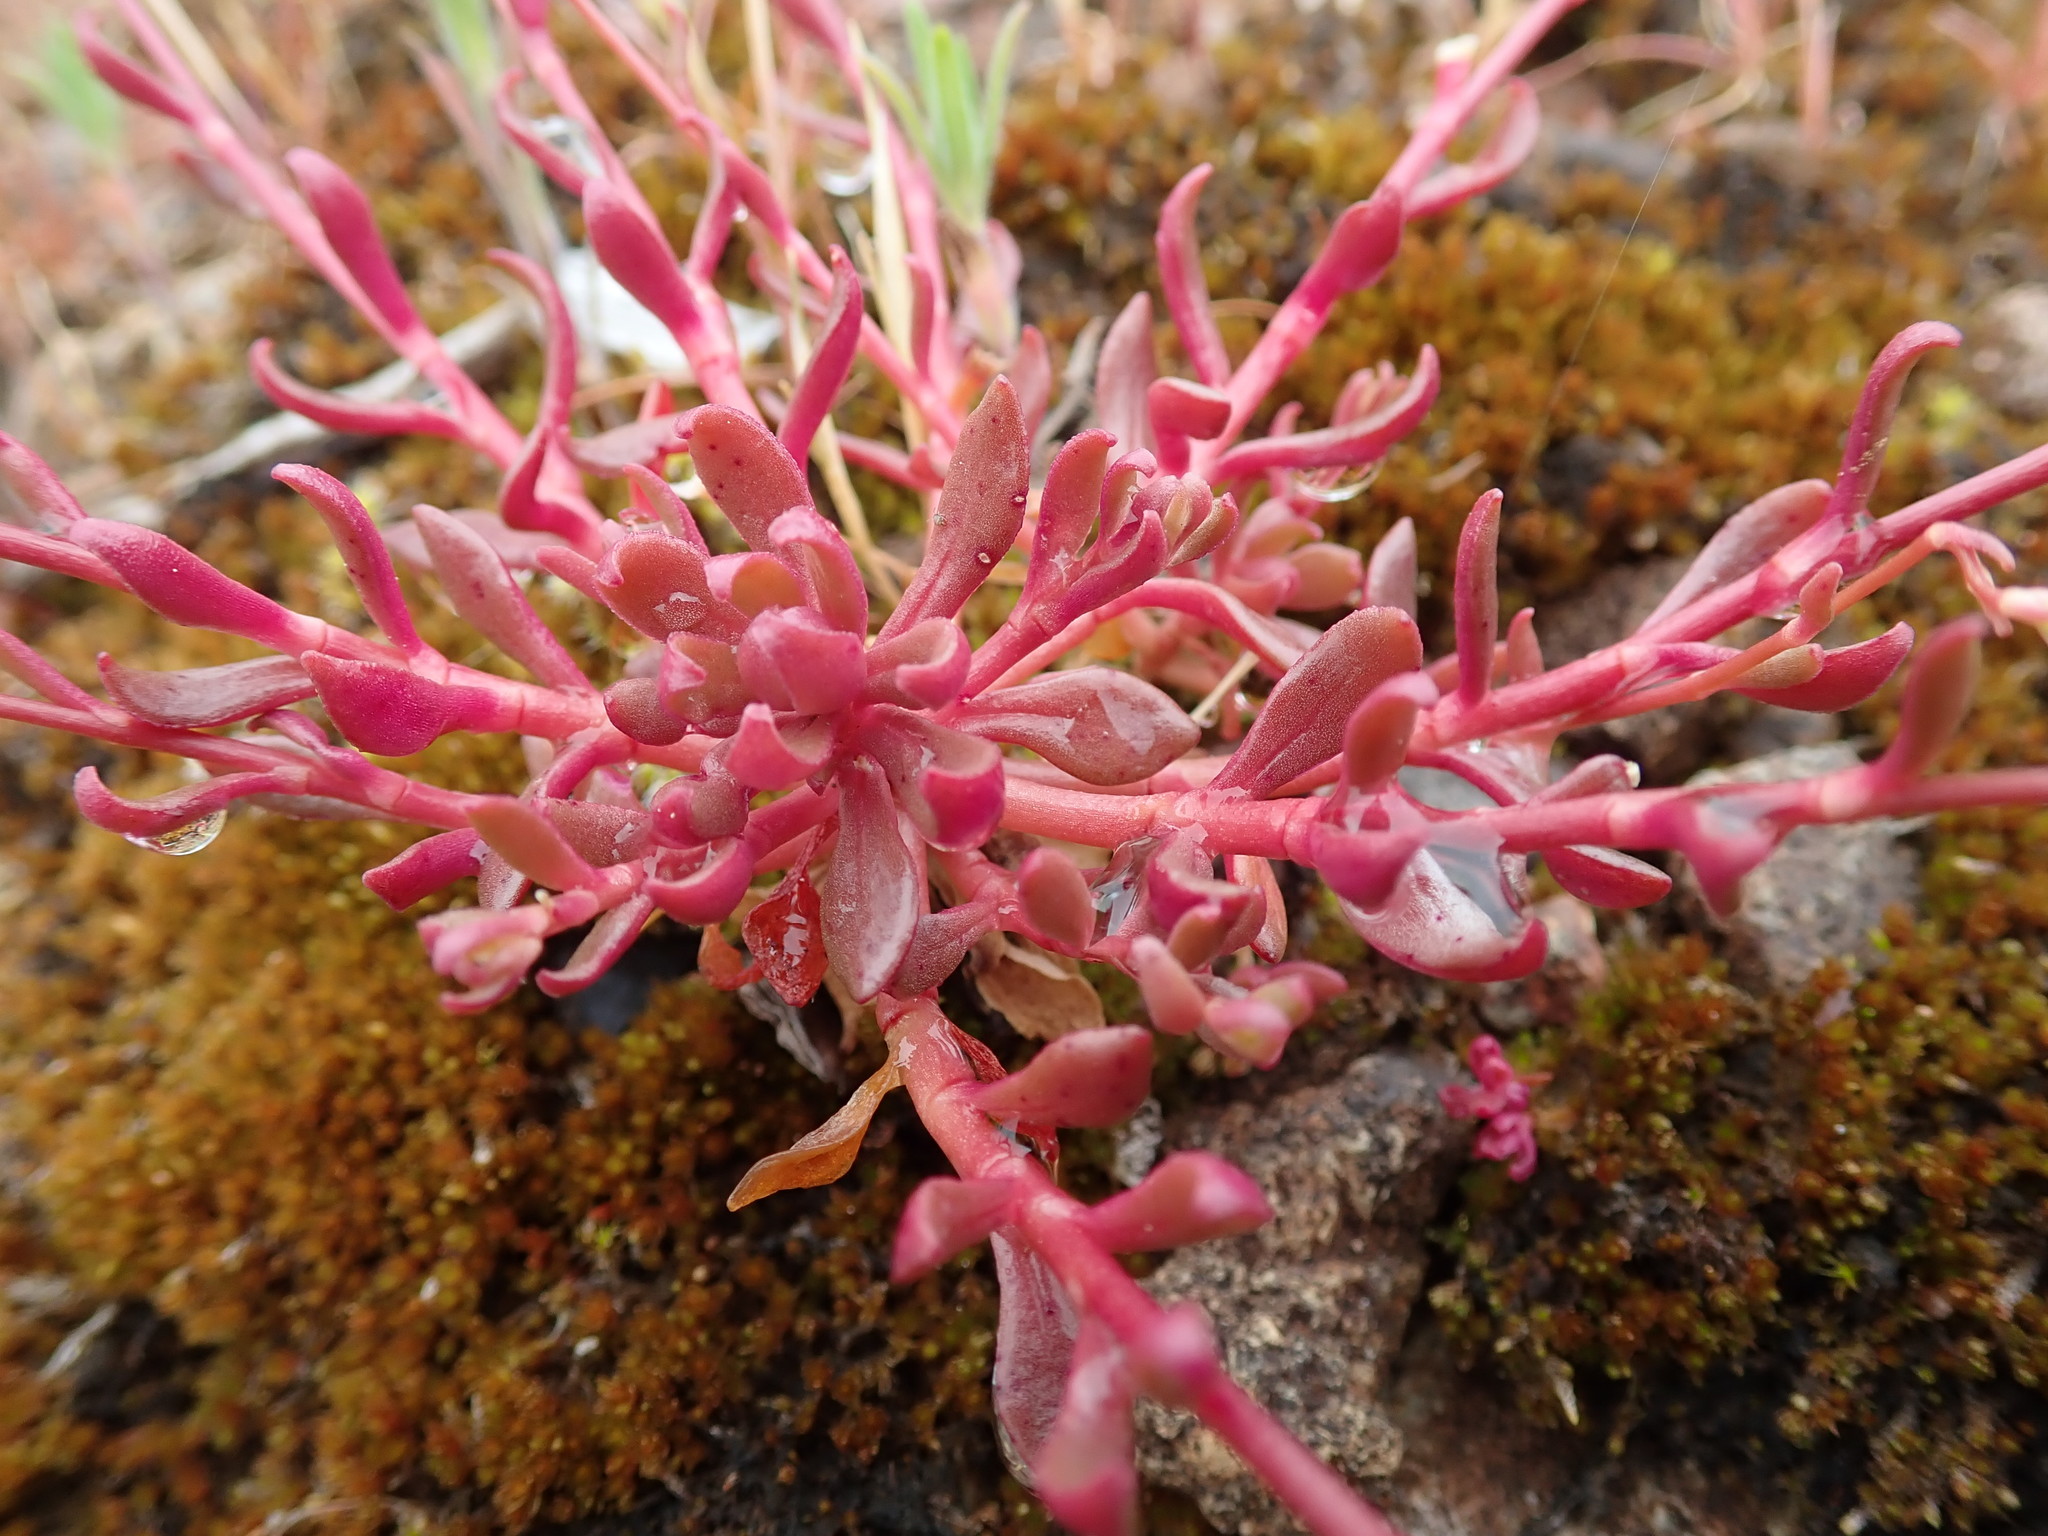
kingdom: Plantae
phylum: Tracheophyta
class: Magnoliopsida
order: Caryophyllales
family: Montiaceae
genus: Montia
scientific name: Montia parvifolia
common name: Small-leaved blinks
